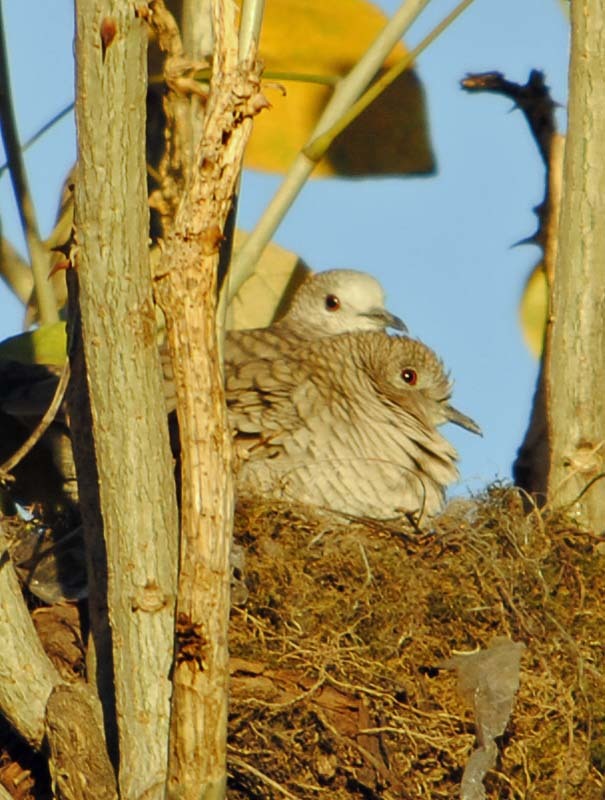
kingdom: Animalia
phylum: Chordata
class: Aves
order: Columbiformes
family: Columbidae
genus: Columbina
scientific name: Columbina inca
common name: Inca dove
